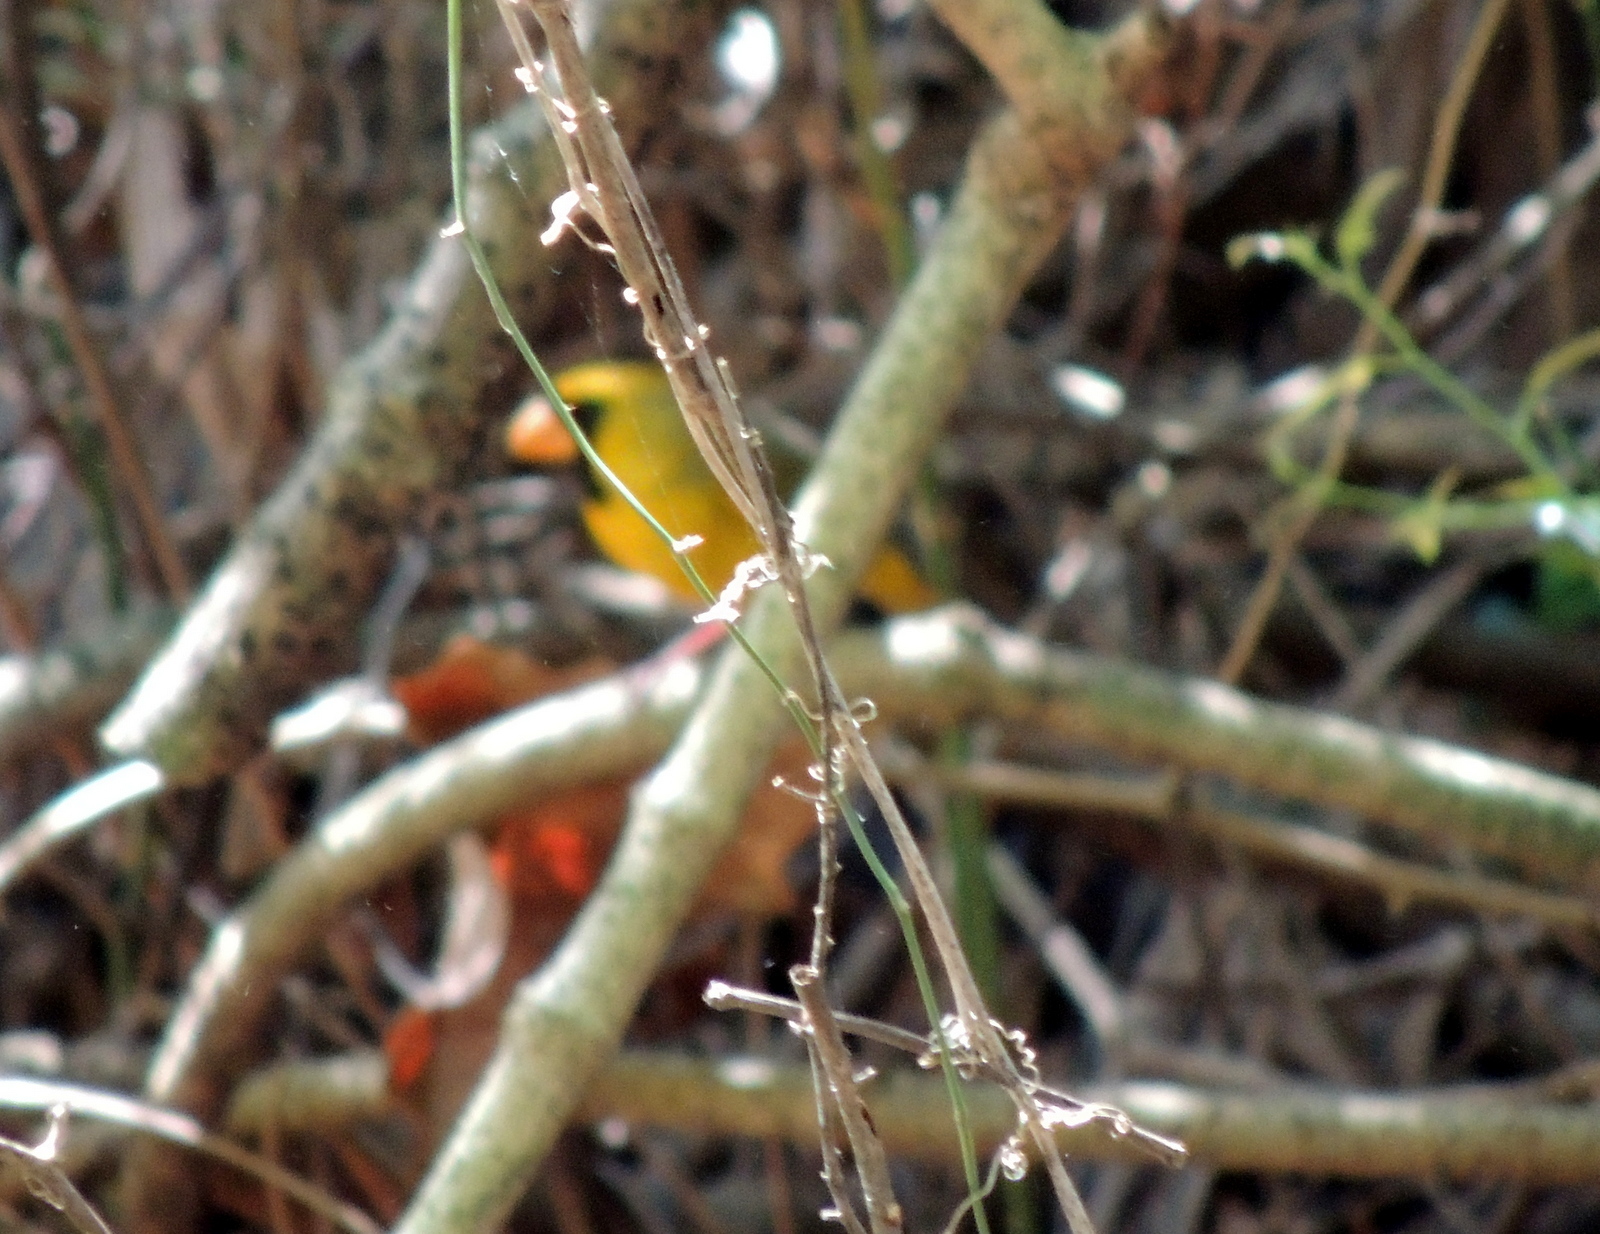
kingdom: Animalia
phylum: Chordata
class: Aves
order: Passeriformes
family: Cardinalidae
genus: Cardinalis
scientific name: Cardinalis cardinalis
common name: Northern cardinal
